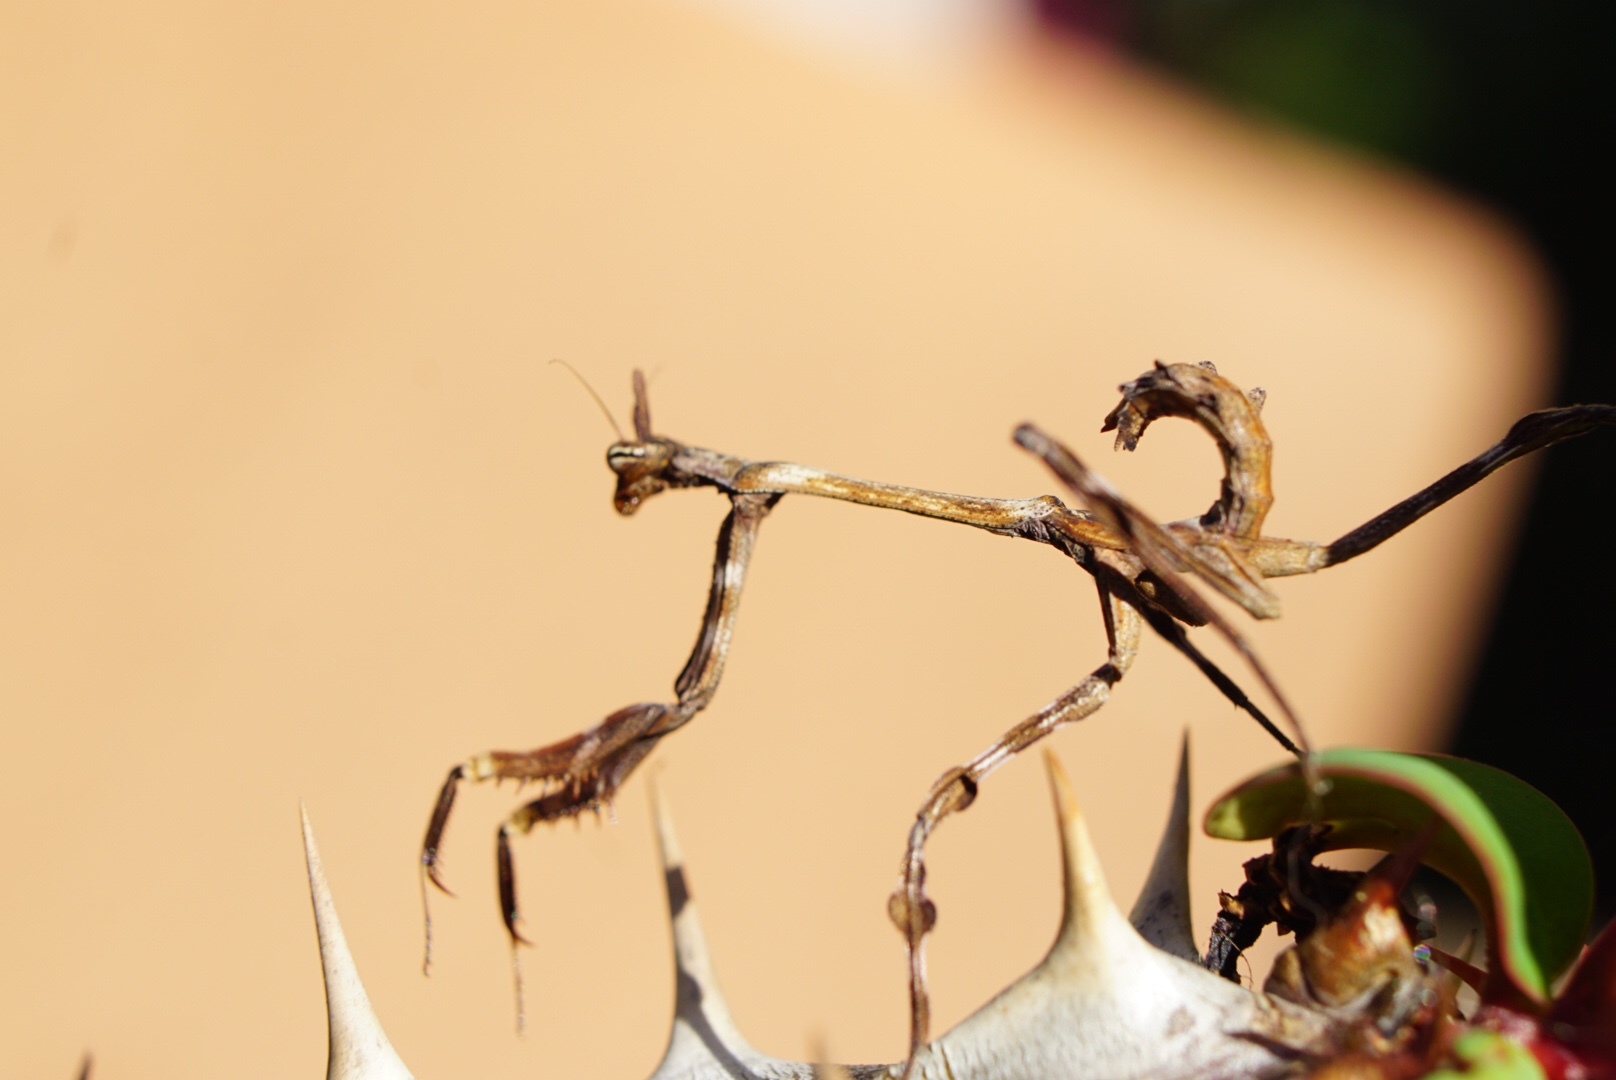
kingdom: Animalia
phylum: Arthropoda
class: Insecta
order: Mantodea
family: Mantidae
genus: Pseudovates
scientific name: Pseudovates arizonae
